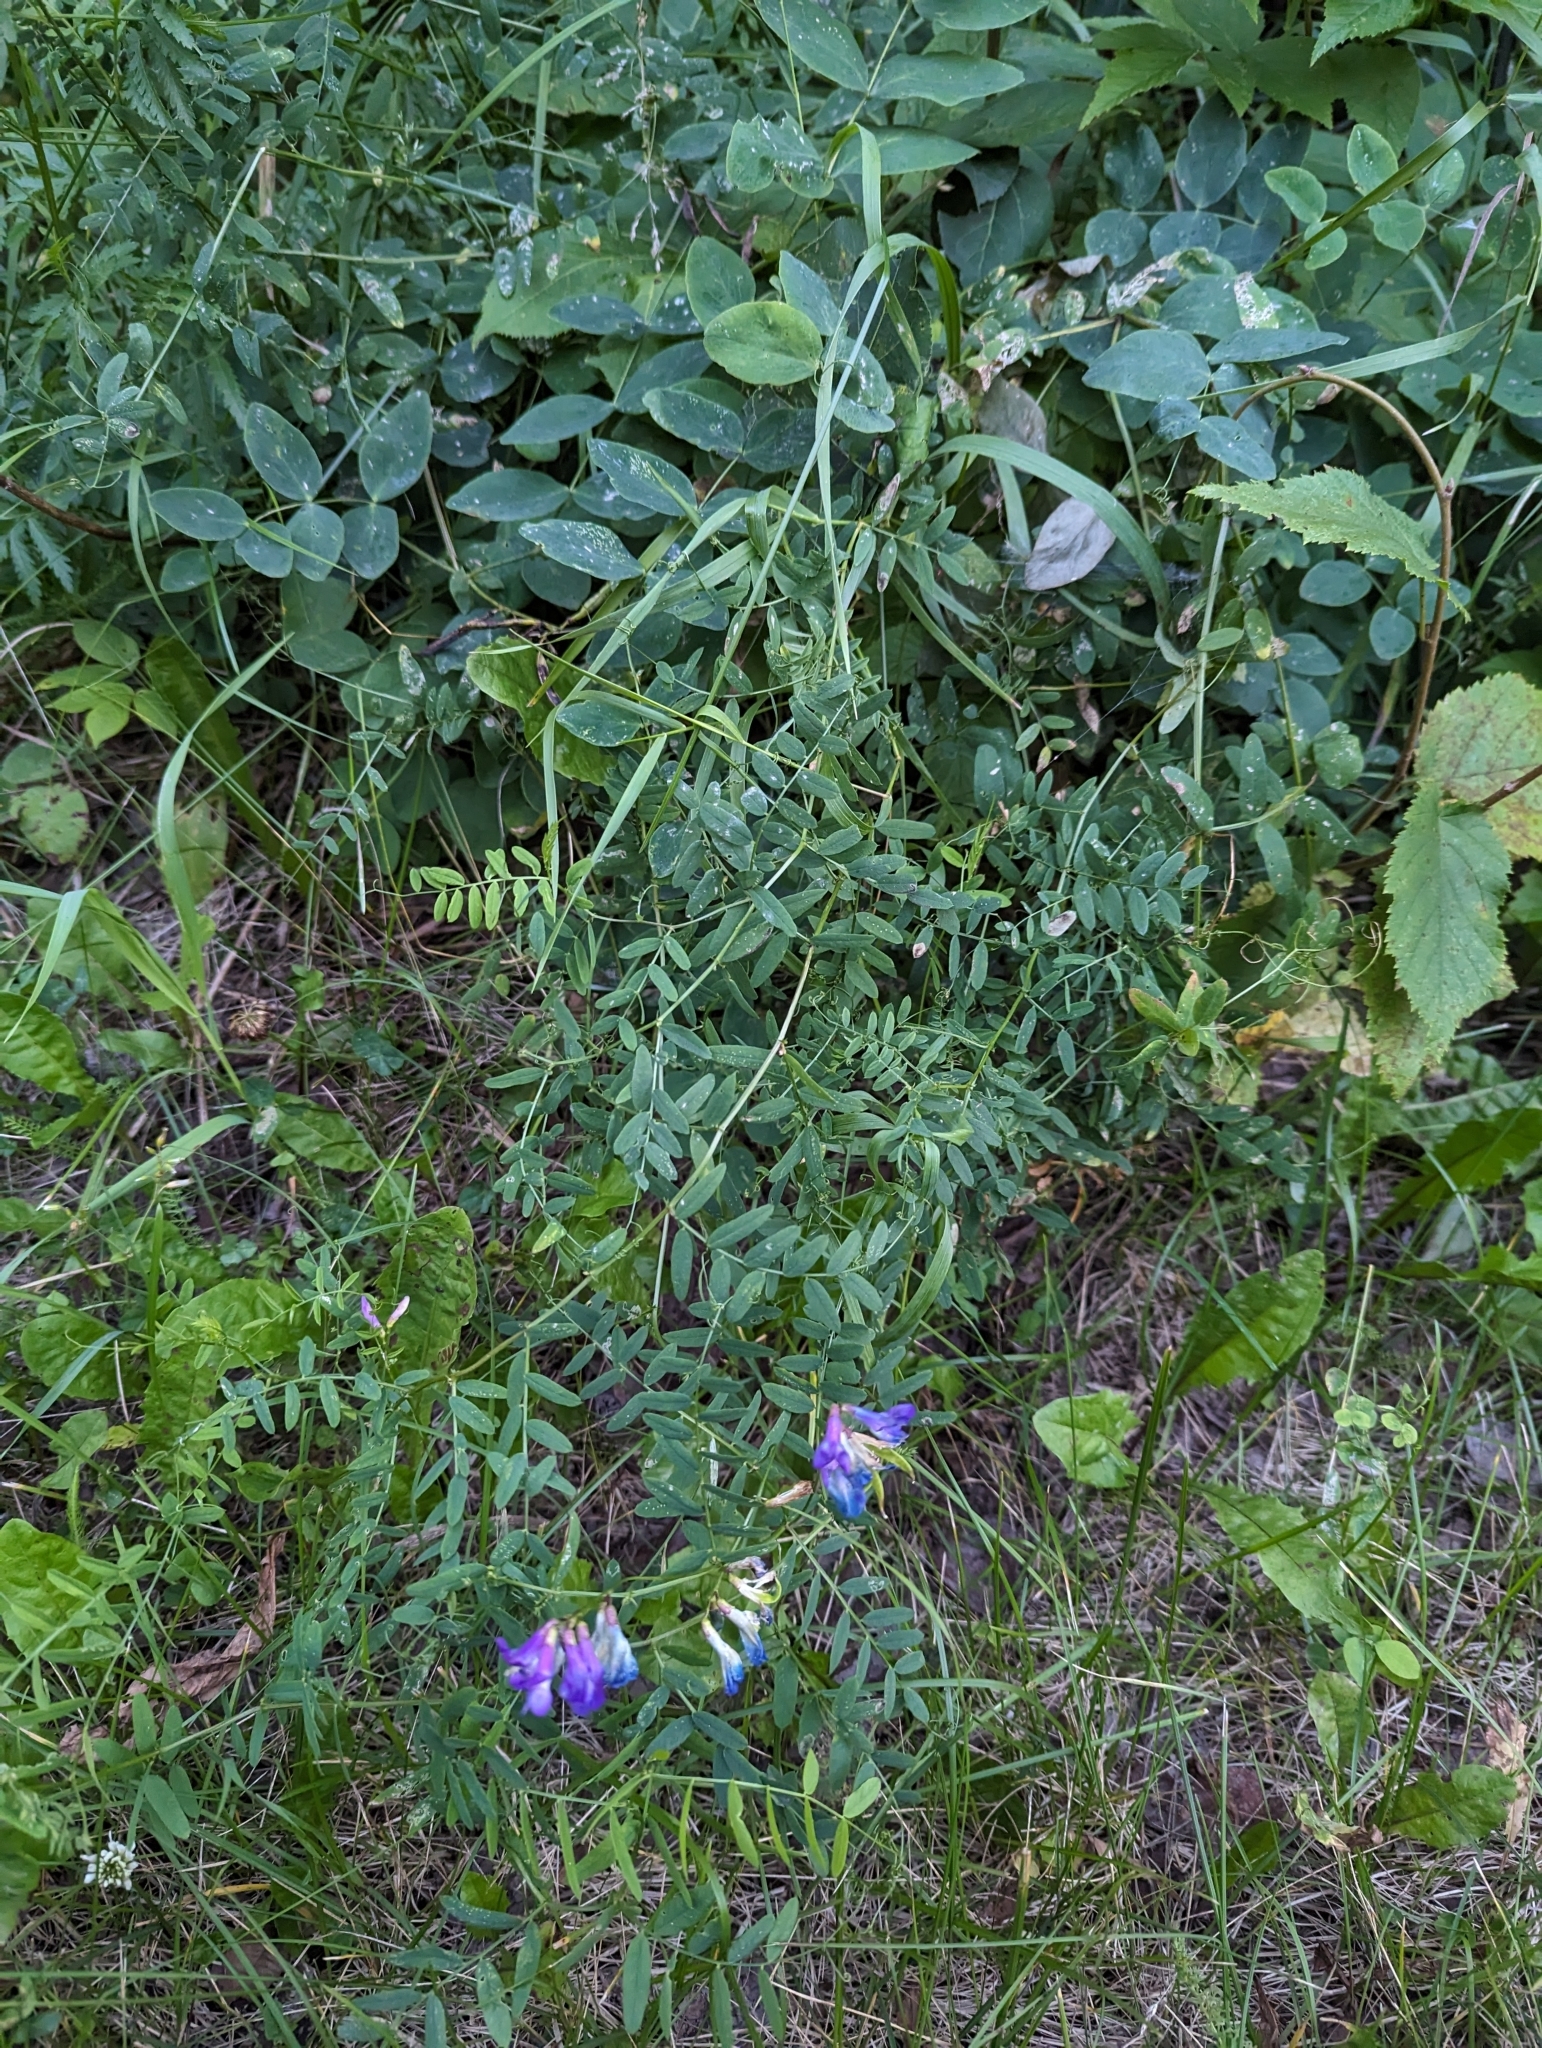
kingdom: Plantae
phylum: Tracheophyta
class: Magnoliopsida
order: Fabales
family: Fabaceae
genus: Vicia
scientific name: Vicia americana
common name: American vetch
